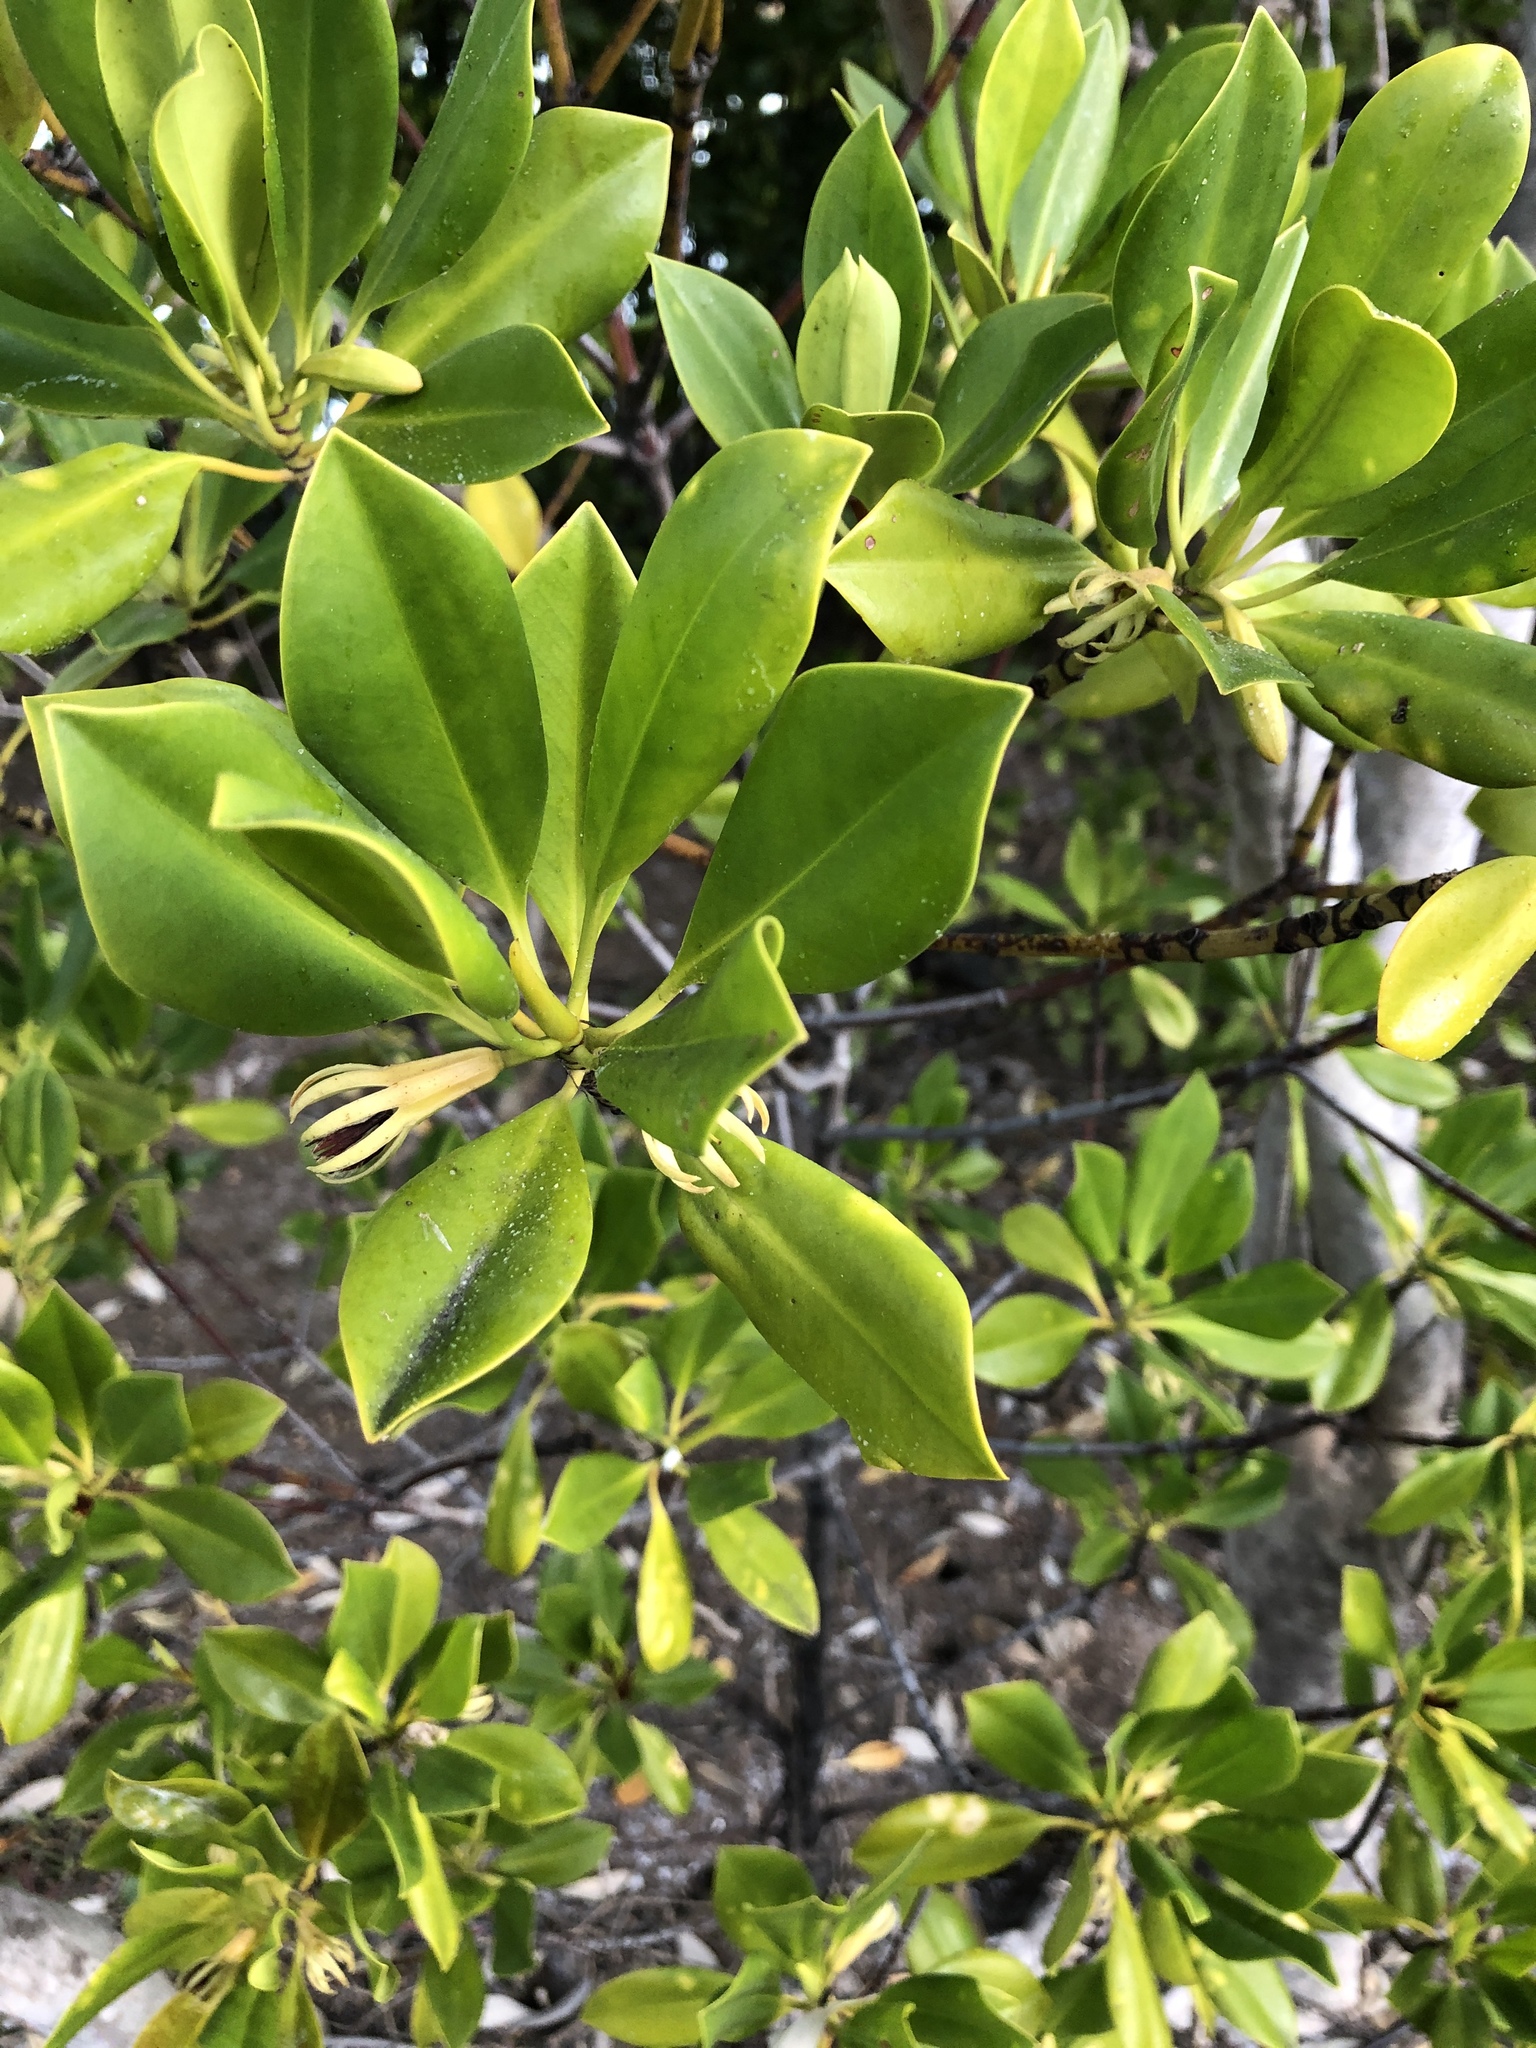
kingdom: Plantae
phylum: Tracheophyta
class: Magnoliopsida
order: Malpighiales
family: Rhizophoraceae
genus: Bruguiera
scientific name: Bruguiera exaristata
